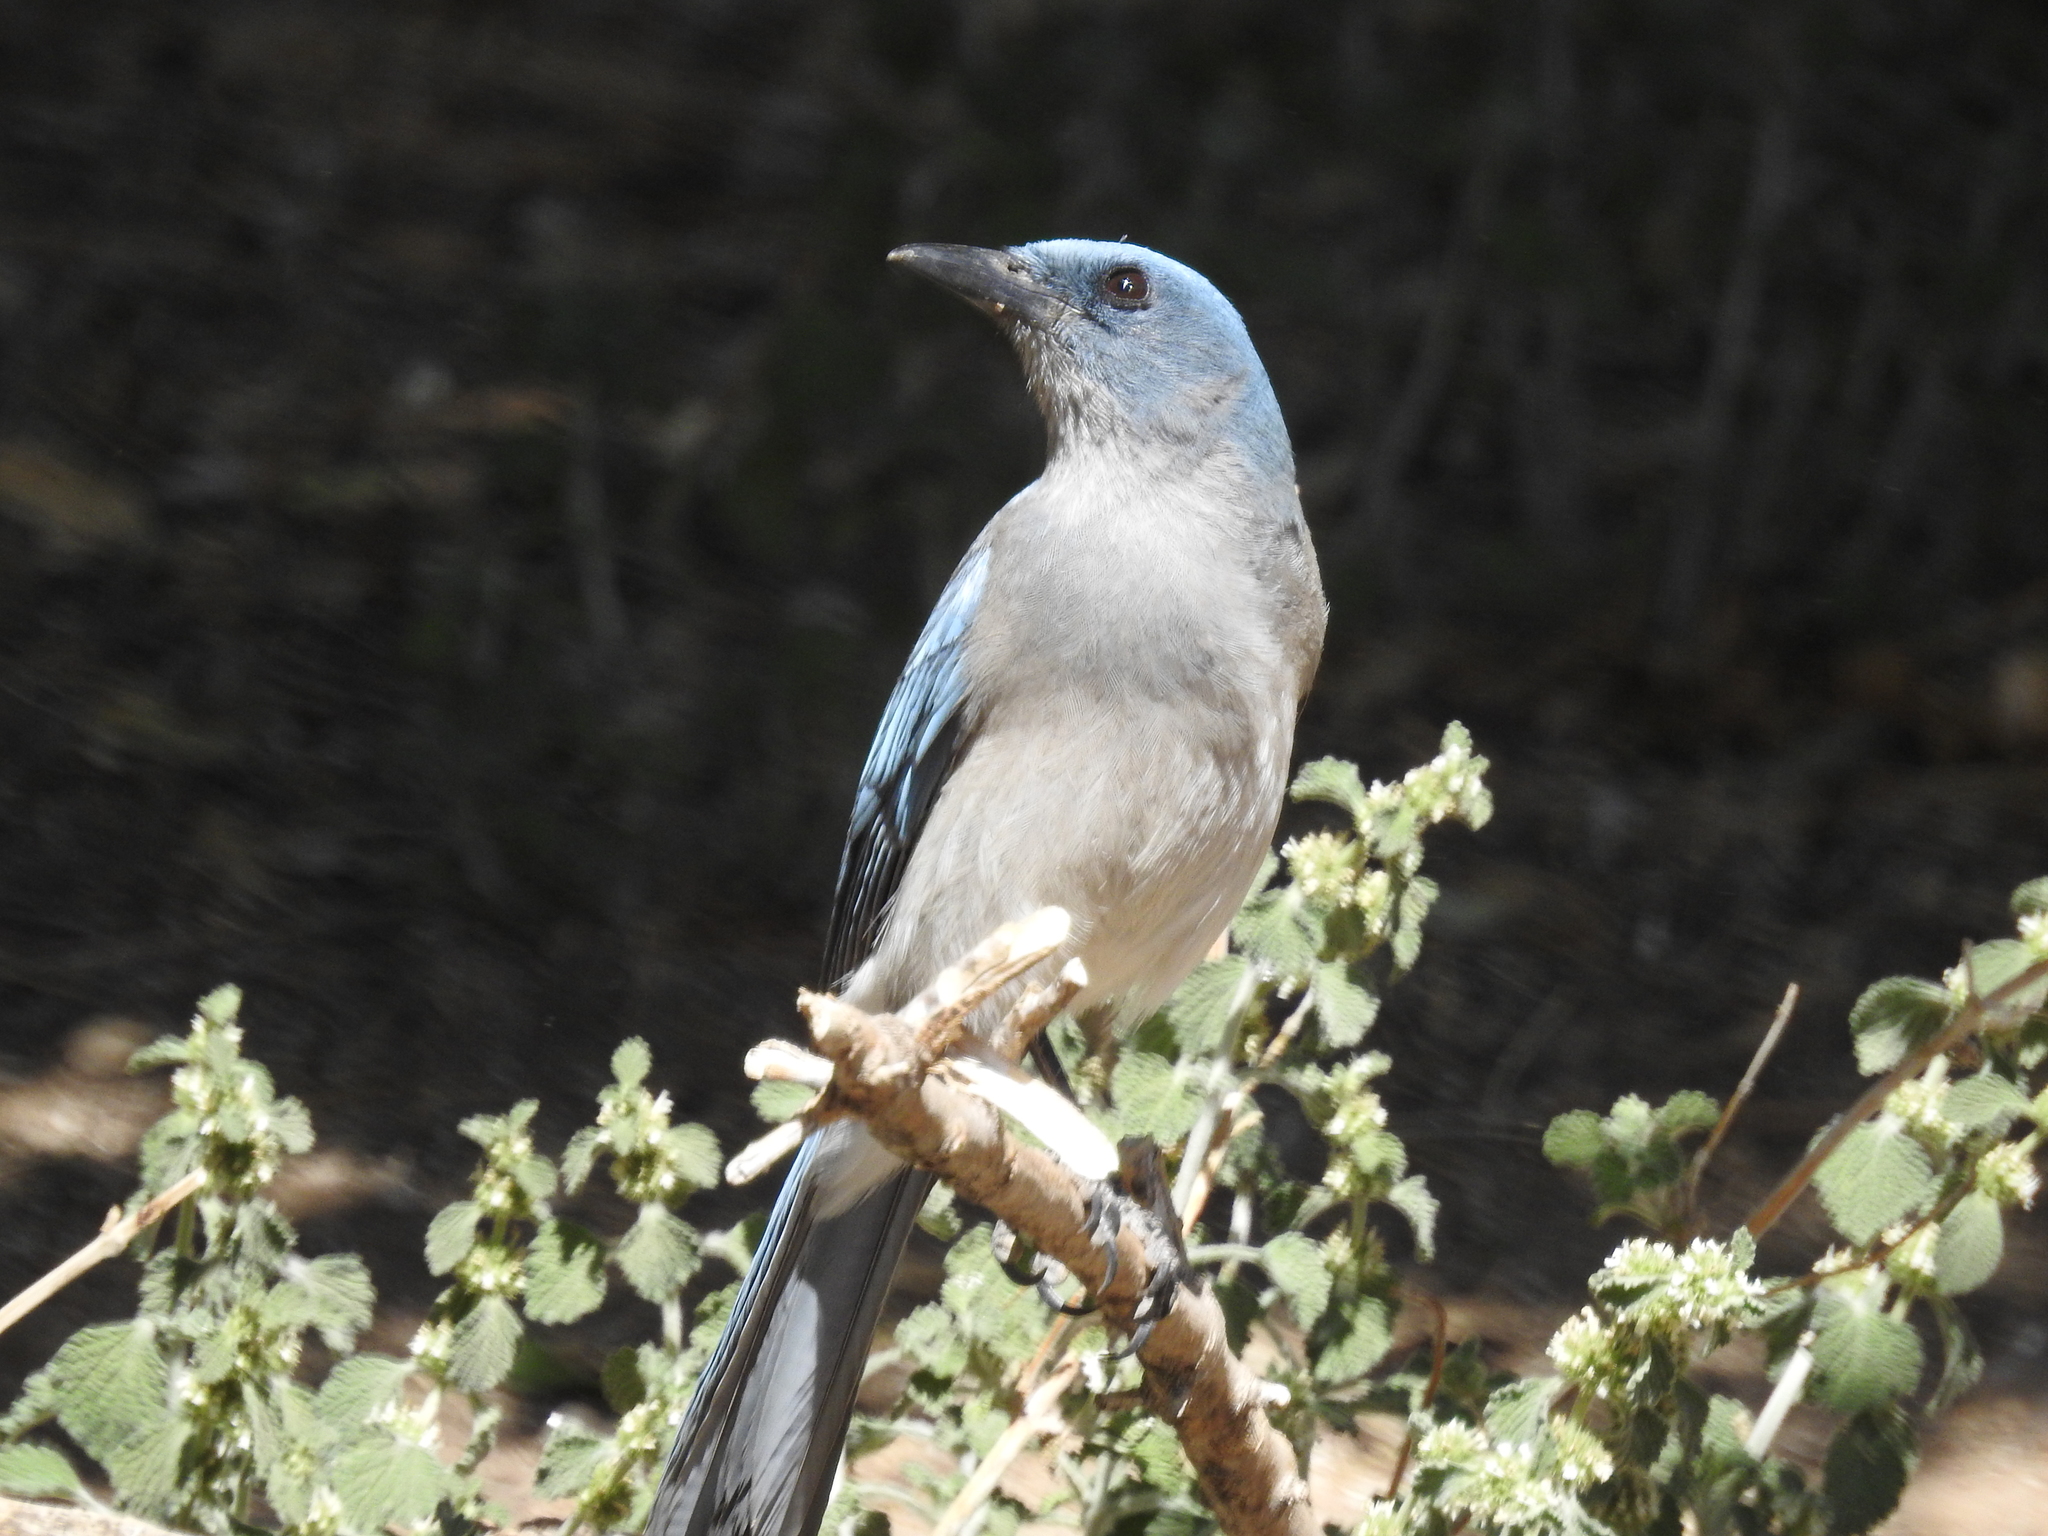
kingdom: Animalia
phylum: Chordata
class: Aves
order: Passeriformes
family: Corvidae
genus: Aphelocoma
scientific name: Aphelocoma wollweberi
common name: Mexican jay
